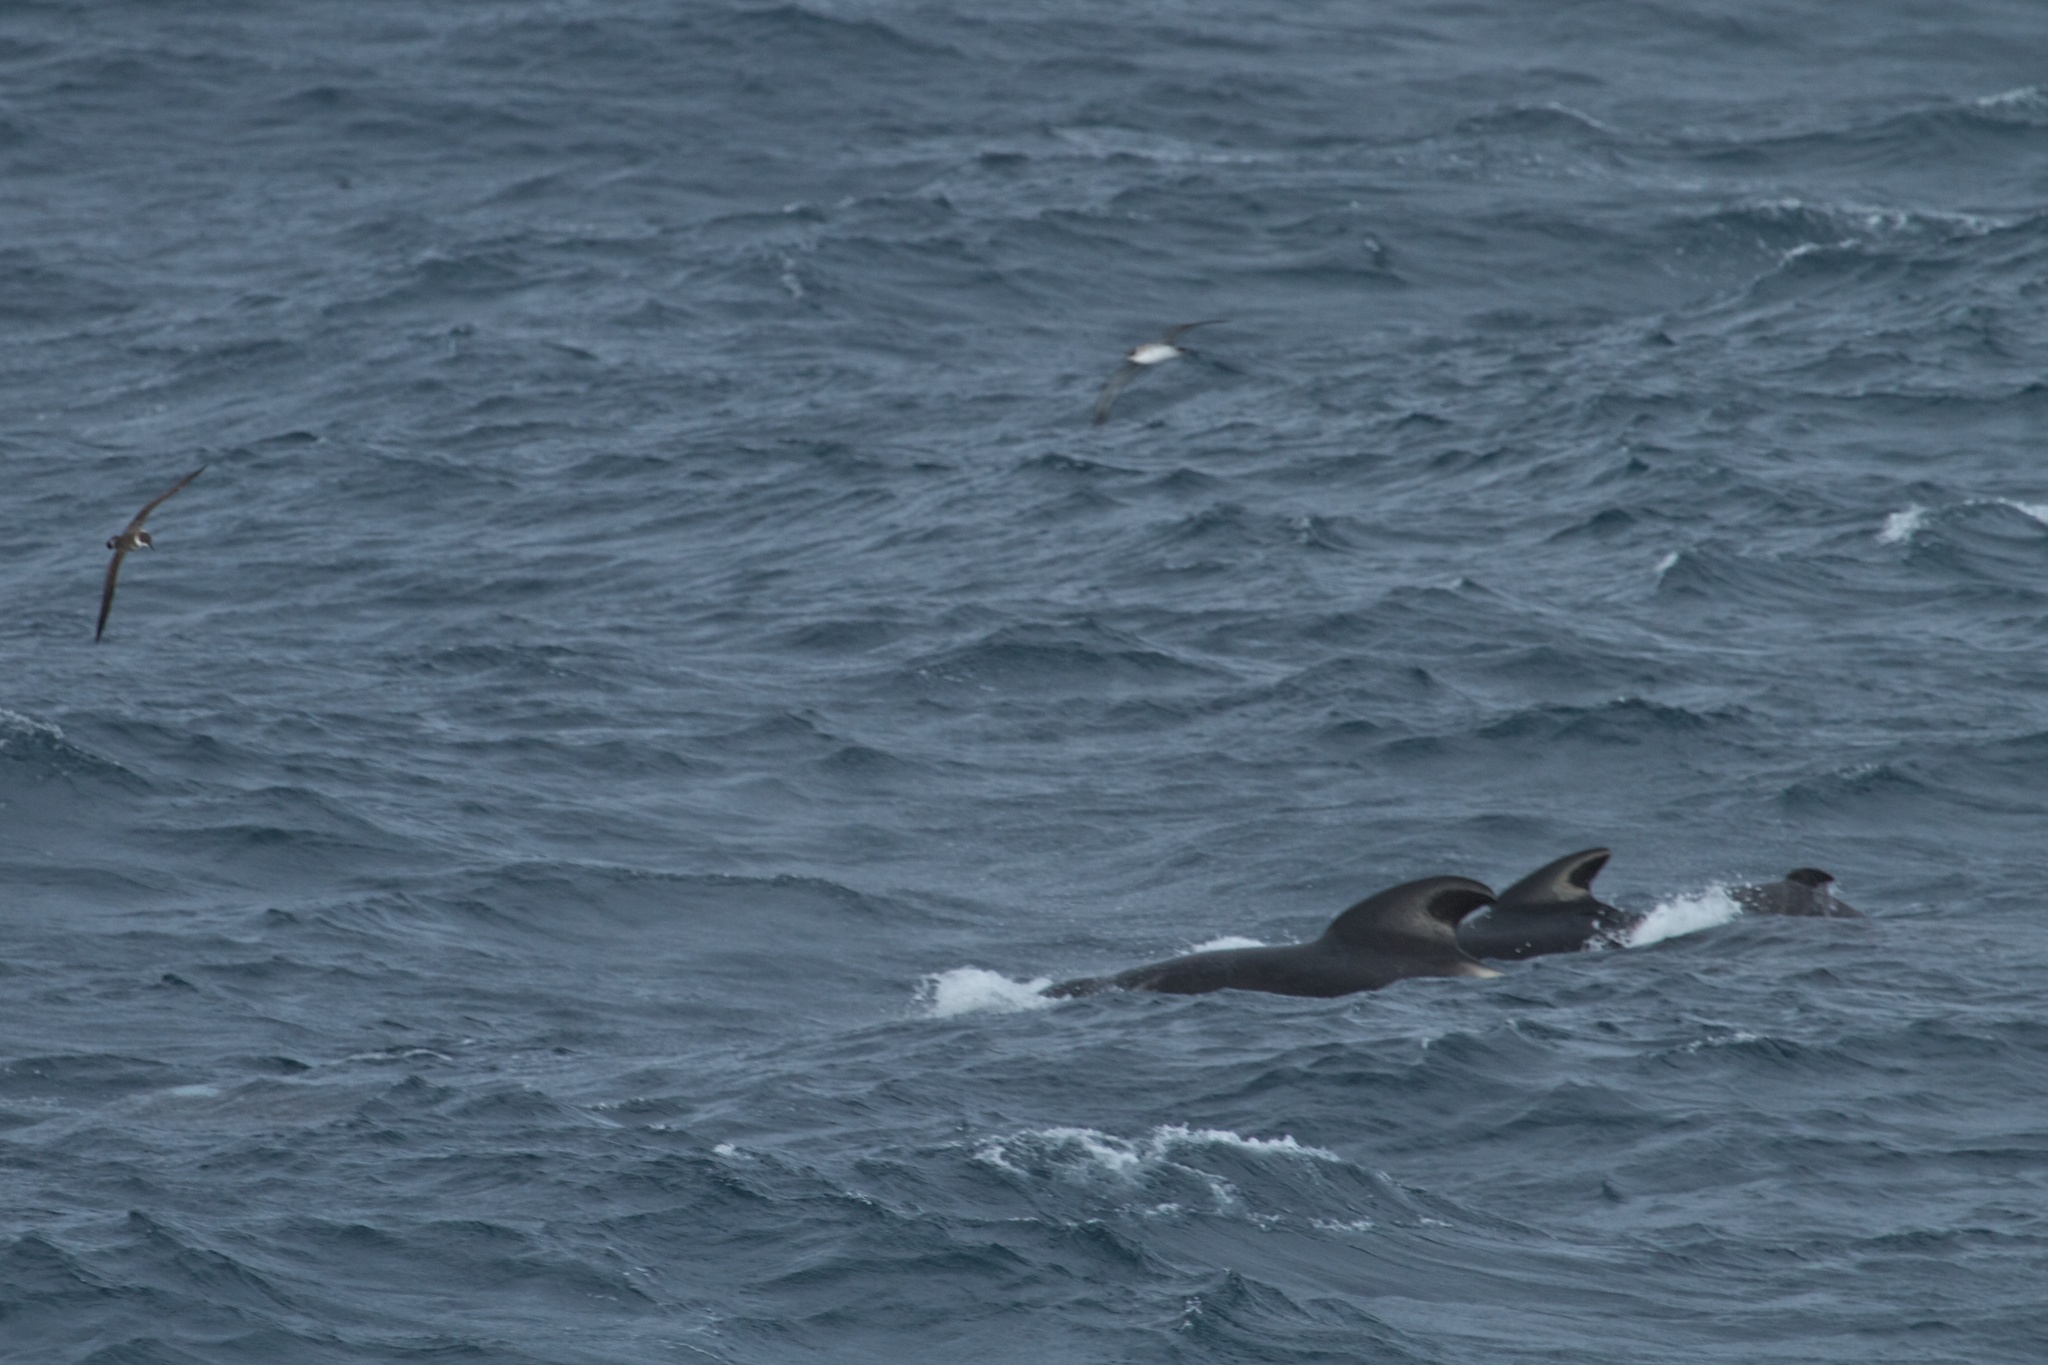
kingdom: Animalia
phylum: Chordata
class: Mammalia
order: Cetacea
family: Delphinidae
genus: Globicephala
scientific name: Globicephala melas
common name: Long-finned pilot whale
